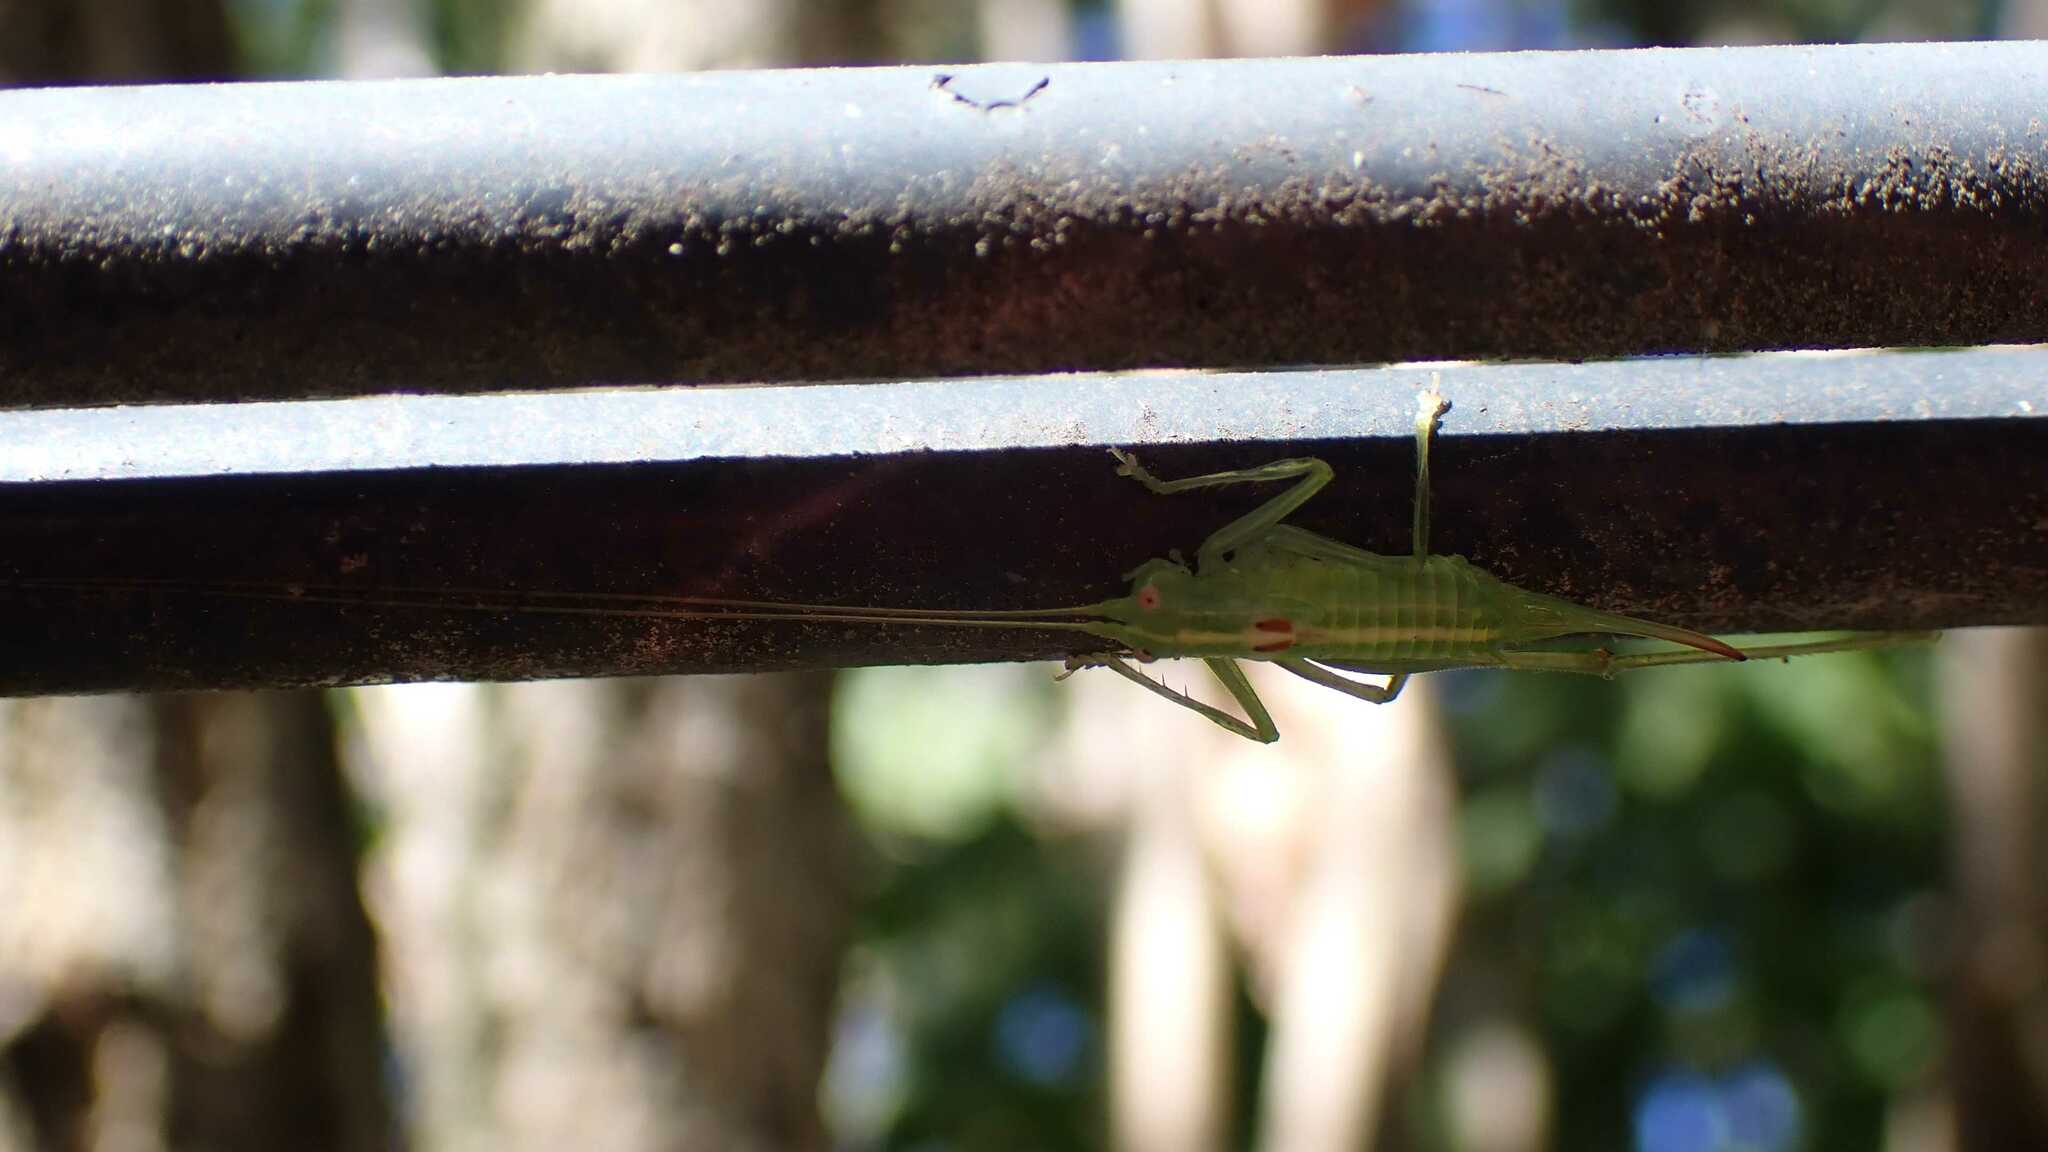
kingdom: Animalia
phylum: Arthropoda
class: Insecta
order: Orthoptera
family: Tettigoniidae
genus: Meconema
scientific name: Meconema meridionale
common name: Southern oak bush-cricket
